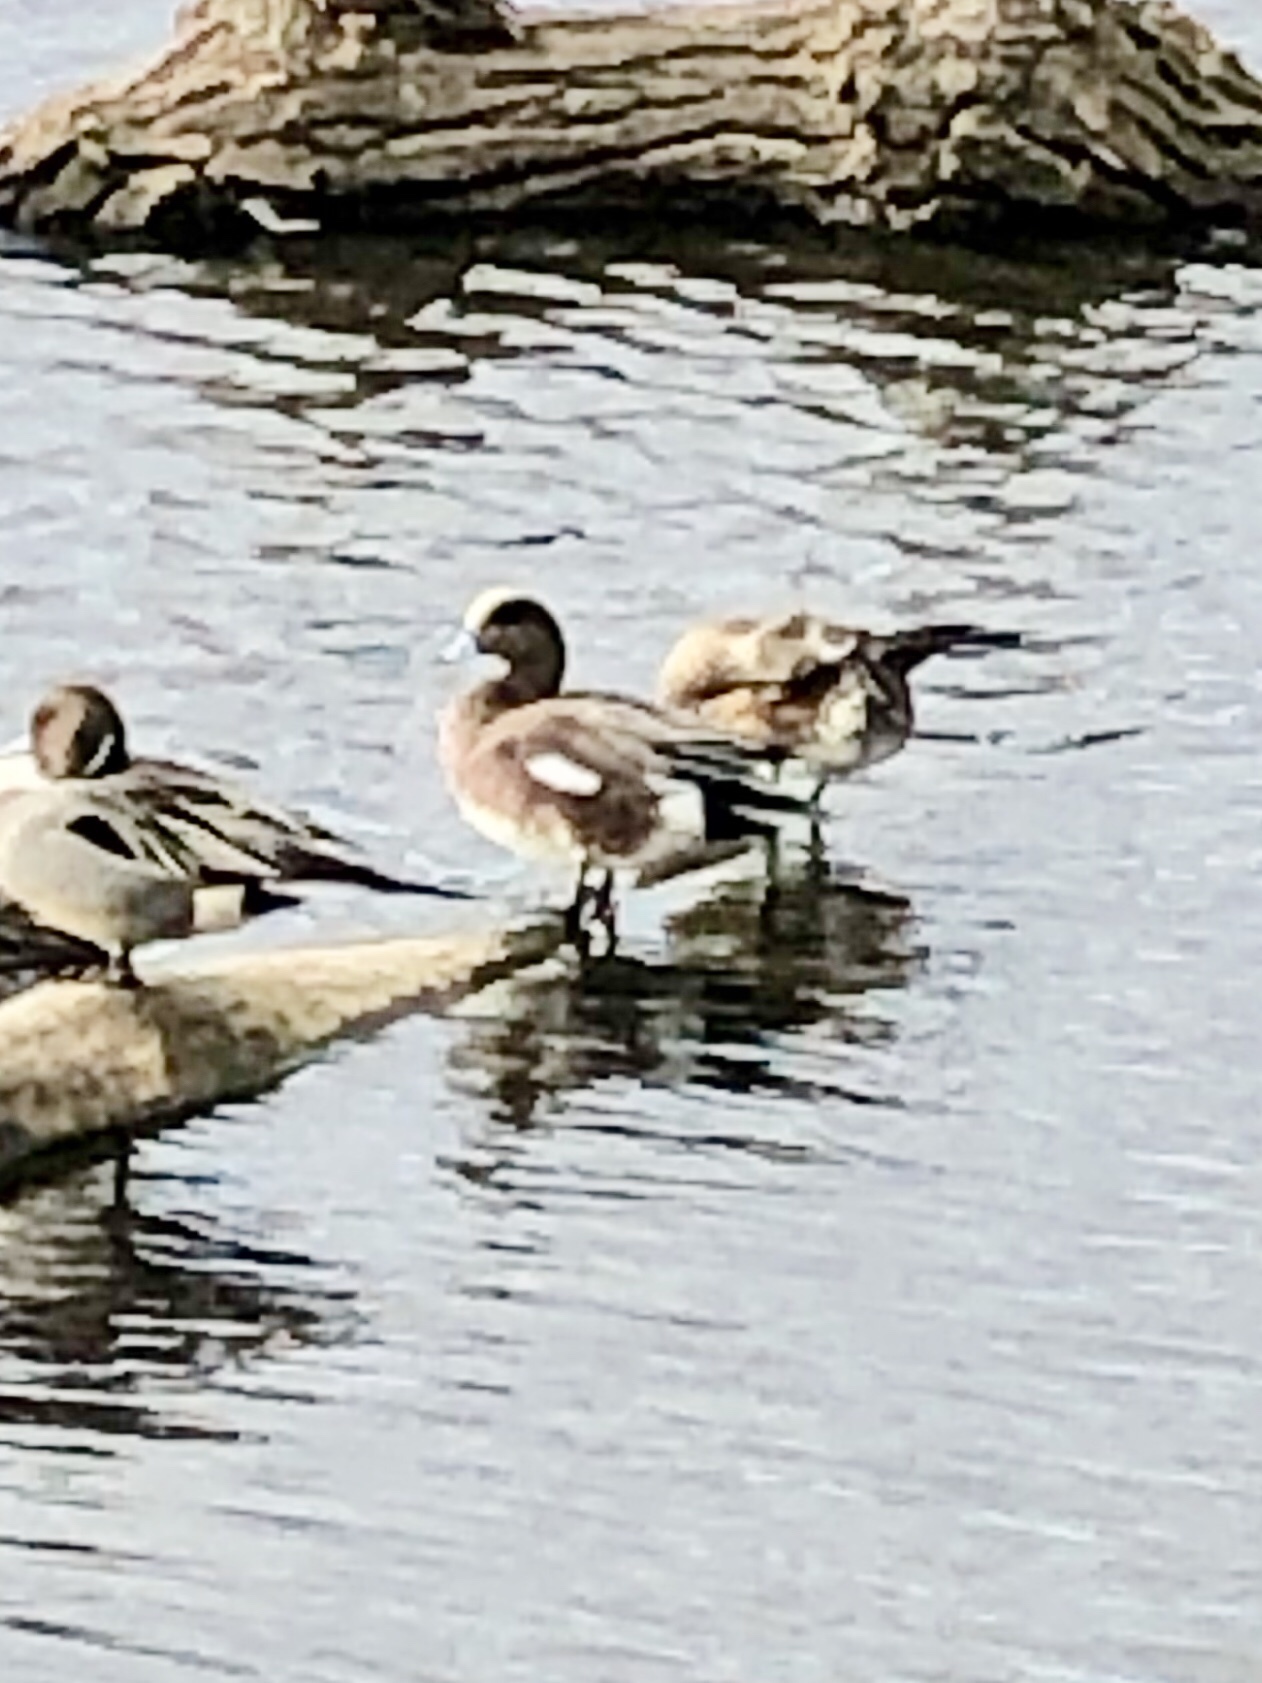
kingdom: Animalia
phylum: Chordata
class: Aves
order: Anseriformes
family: Anatidae
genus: Mareca
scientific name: Mareca americana
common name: American wigeon
